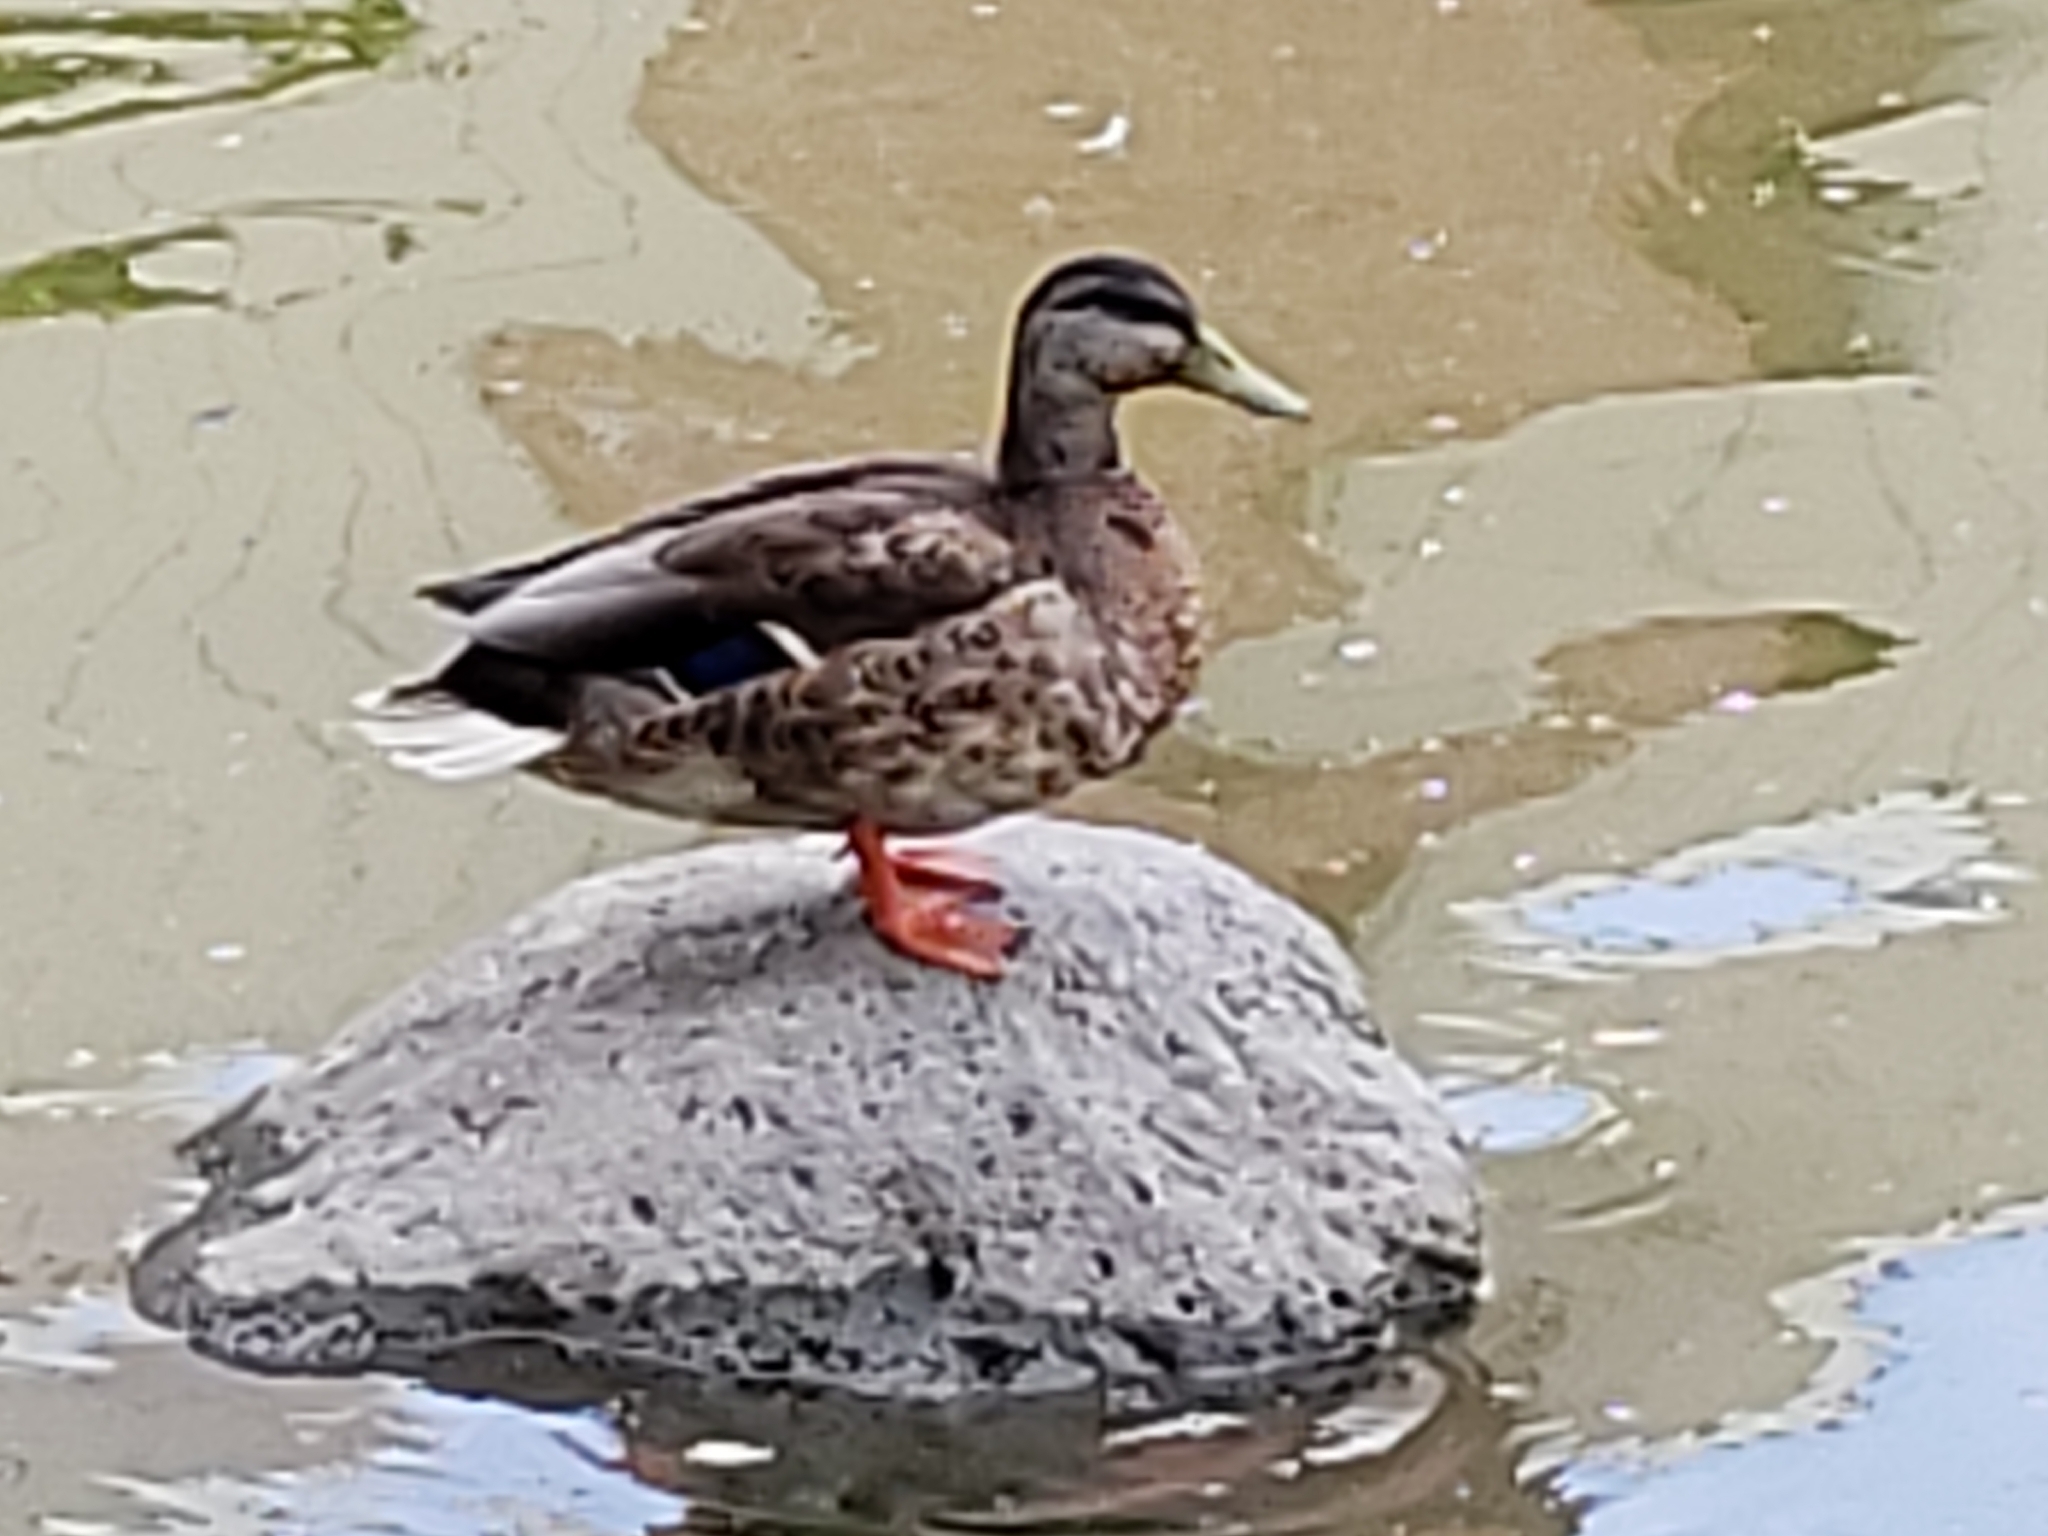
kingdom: Animalia
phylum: Chordata
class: Aves
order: Anseriformes
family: Anatidae
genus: Anas
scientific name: Anas platyrhynchos
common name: Mallard
